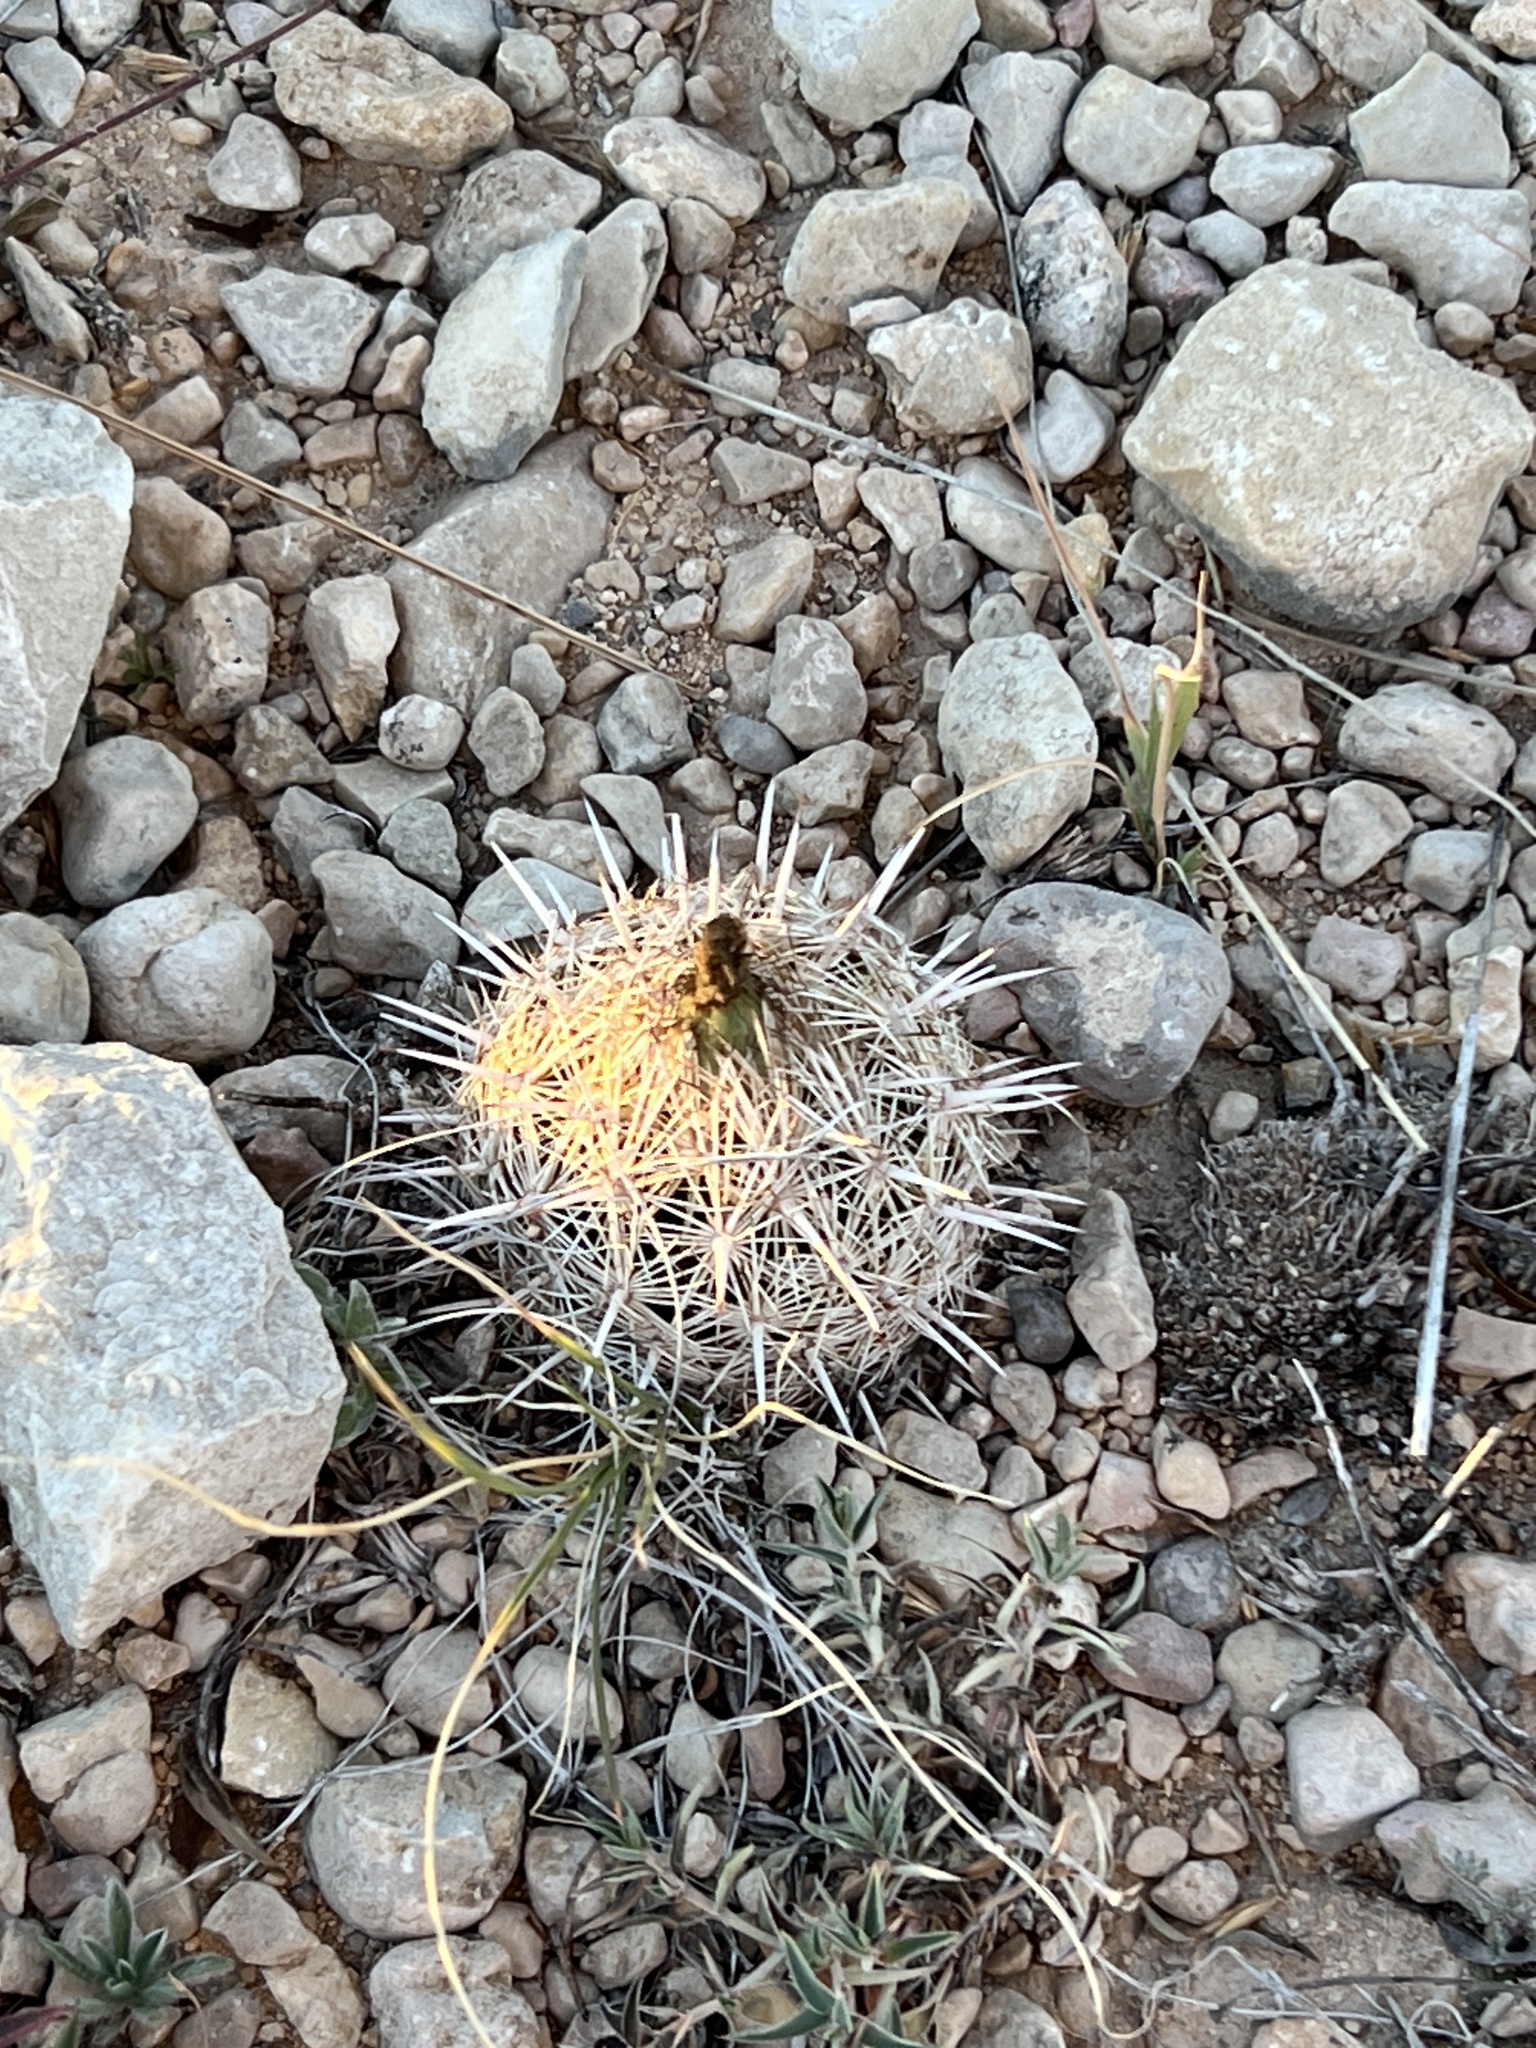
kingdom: Plantae
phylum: Tracheophyta
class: Magnoliopsida
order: Caryophyllales
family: Cactaceae
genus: Coryphantha
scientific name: Coryphantha echinus
